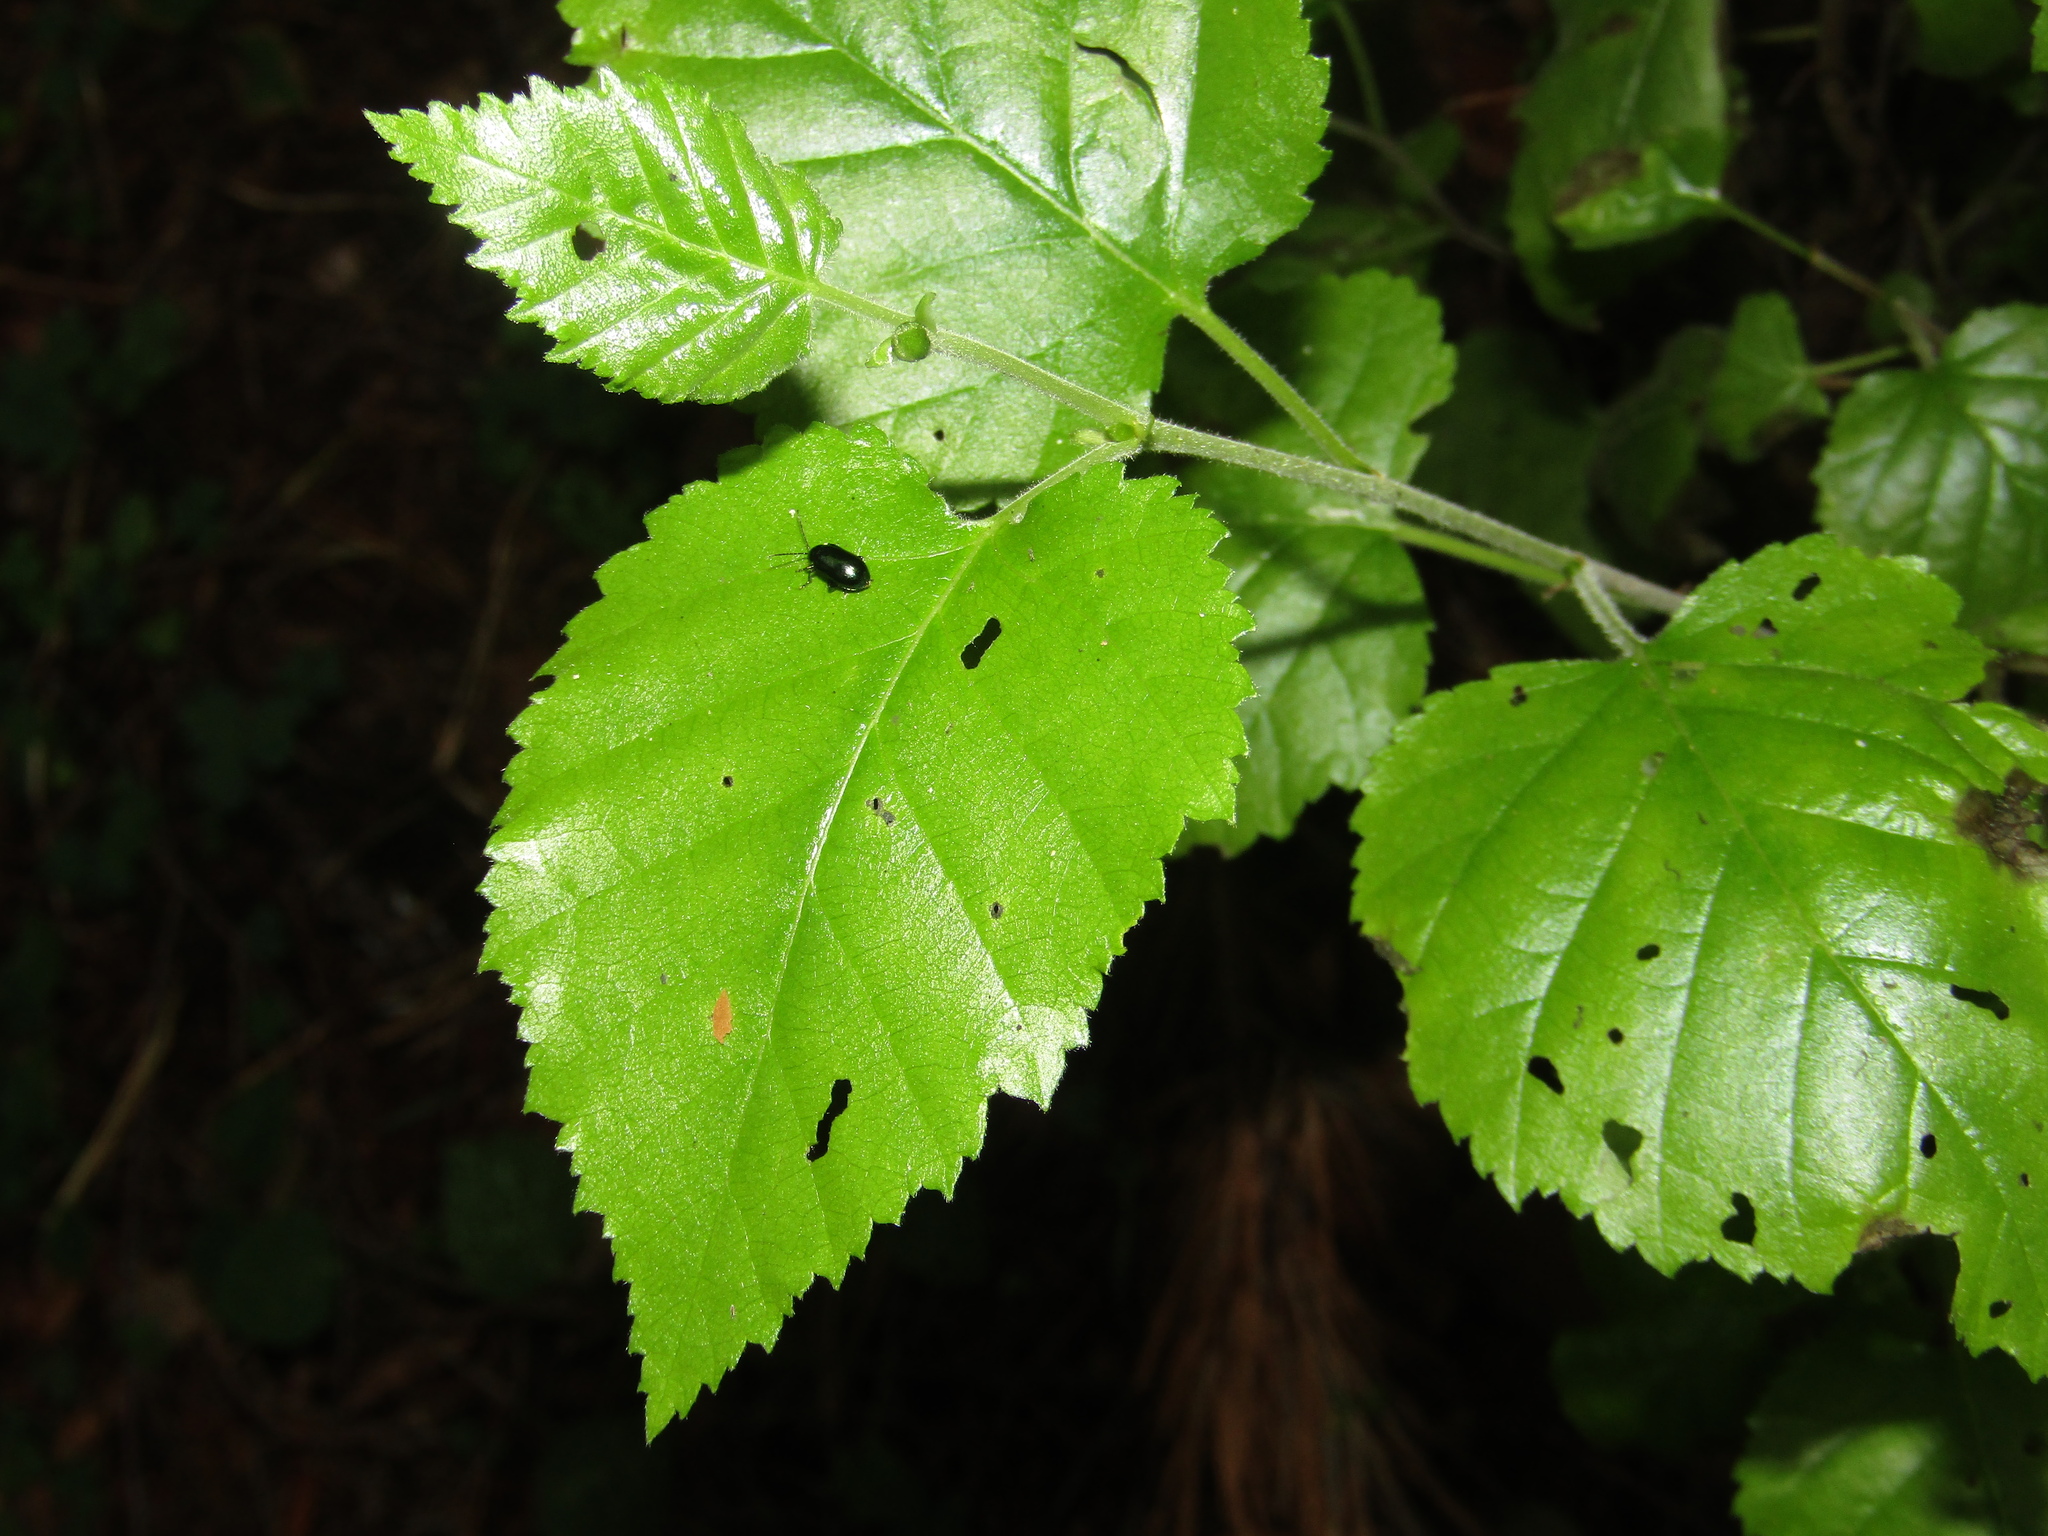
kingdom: Plantae
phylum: Tracheophyta
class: Magnoliopsida
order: Fagales
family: Betulaceae
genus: Betula
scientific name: Betula pubescens
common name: Downy birch
